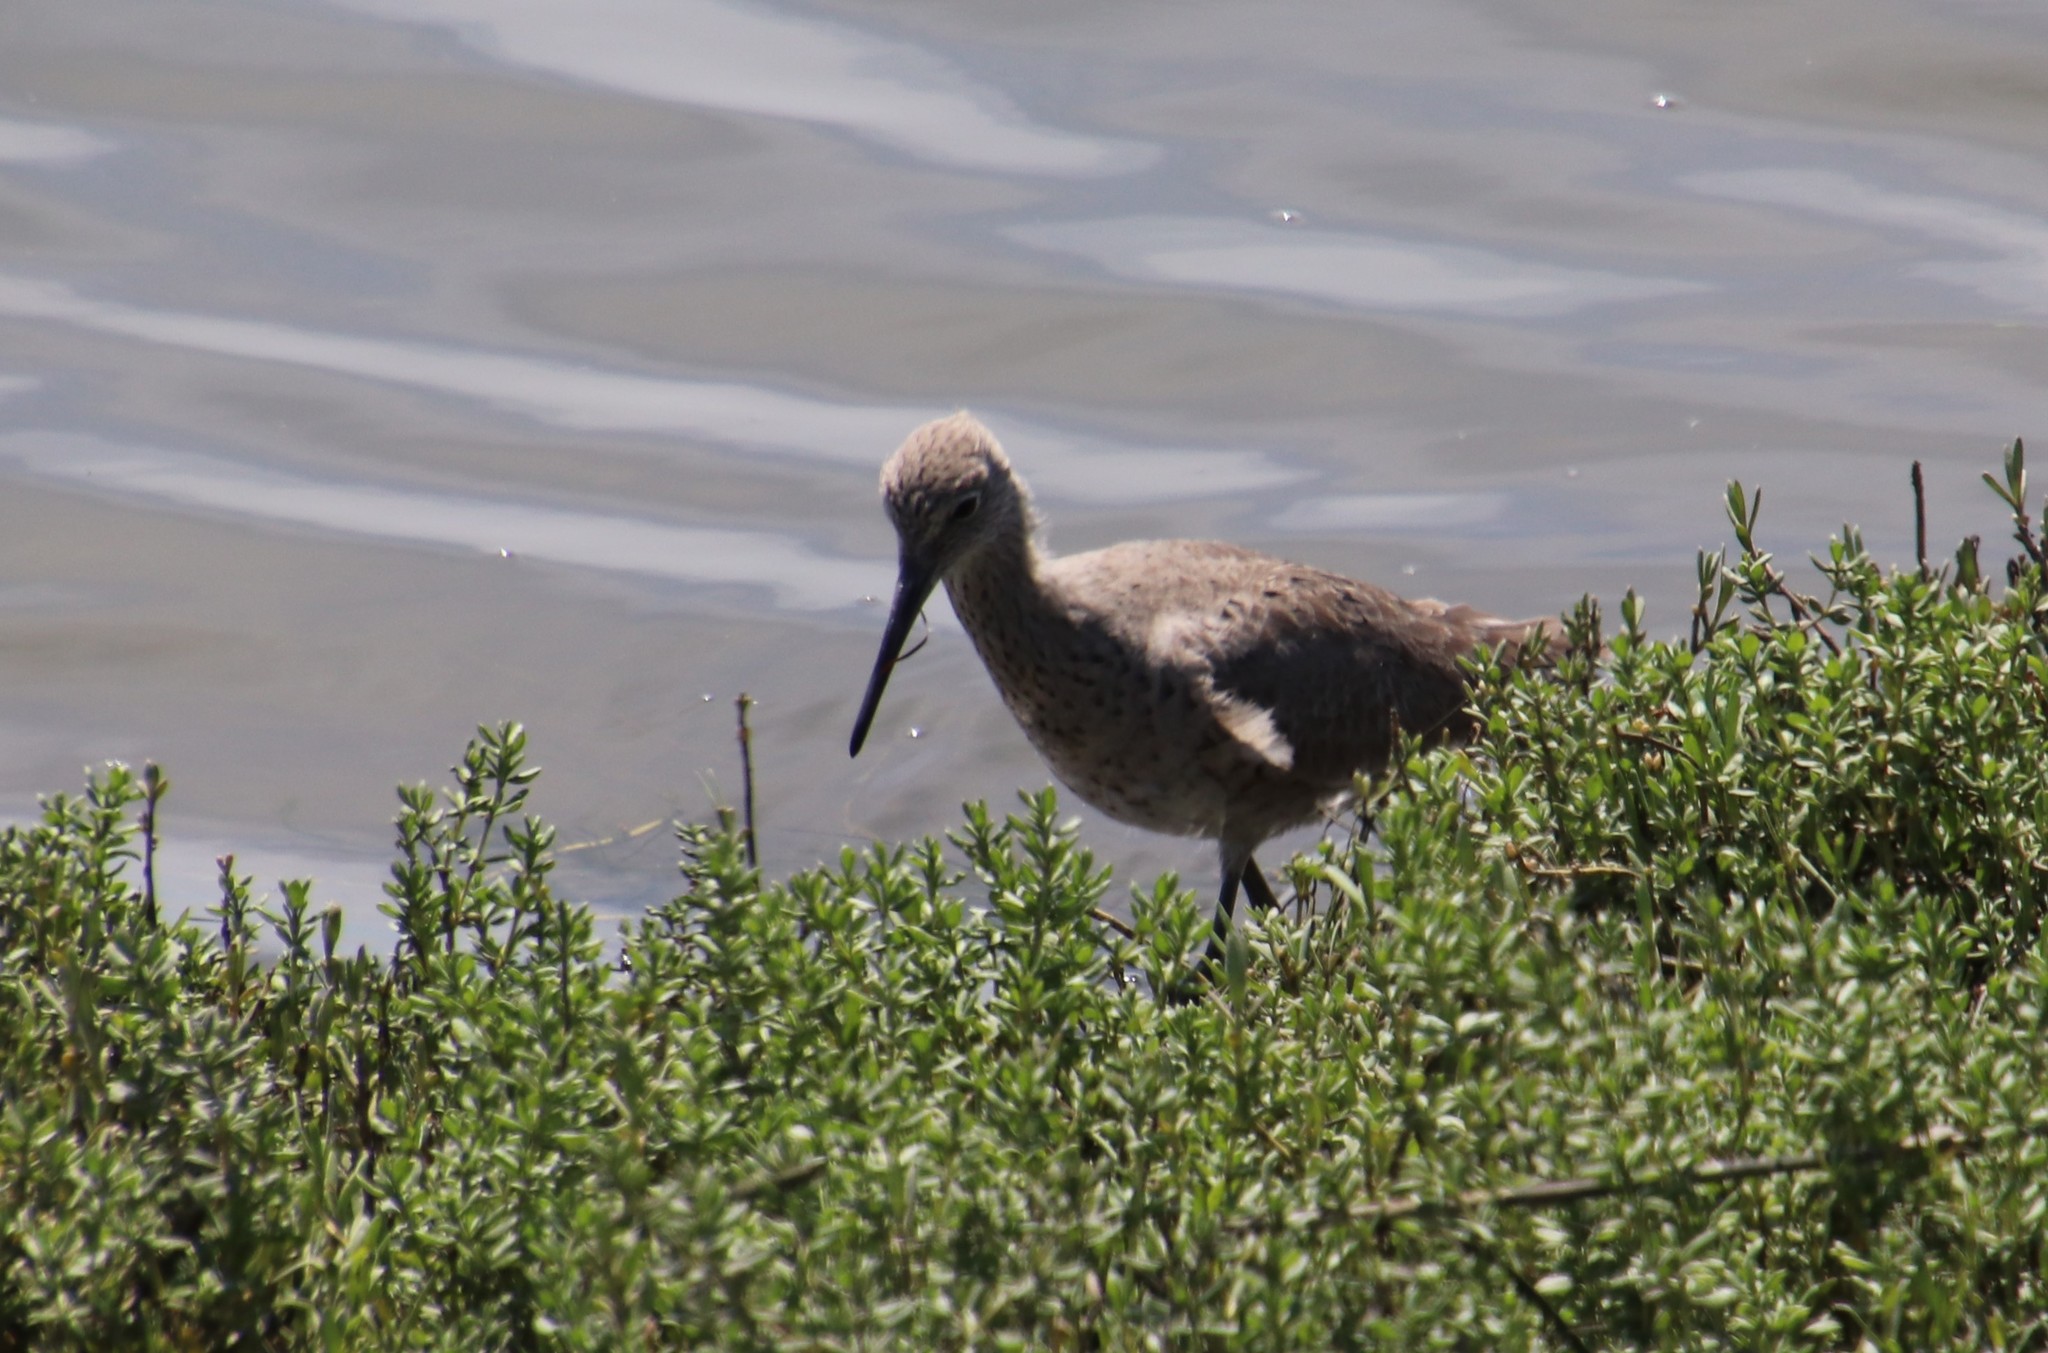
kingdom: Animalia
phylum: Chordata
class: Aves
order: Charadriiformes
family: Scolopacidae
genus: Tringa
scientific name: Tringa semipalmata
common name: Willet
